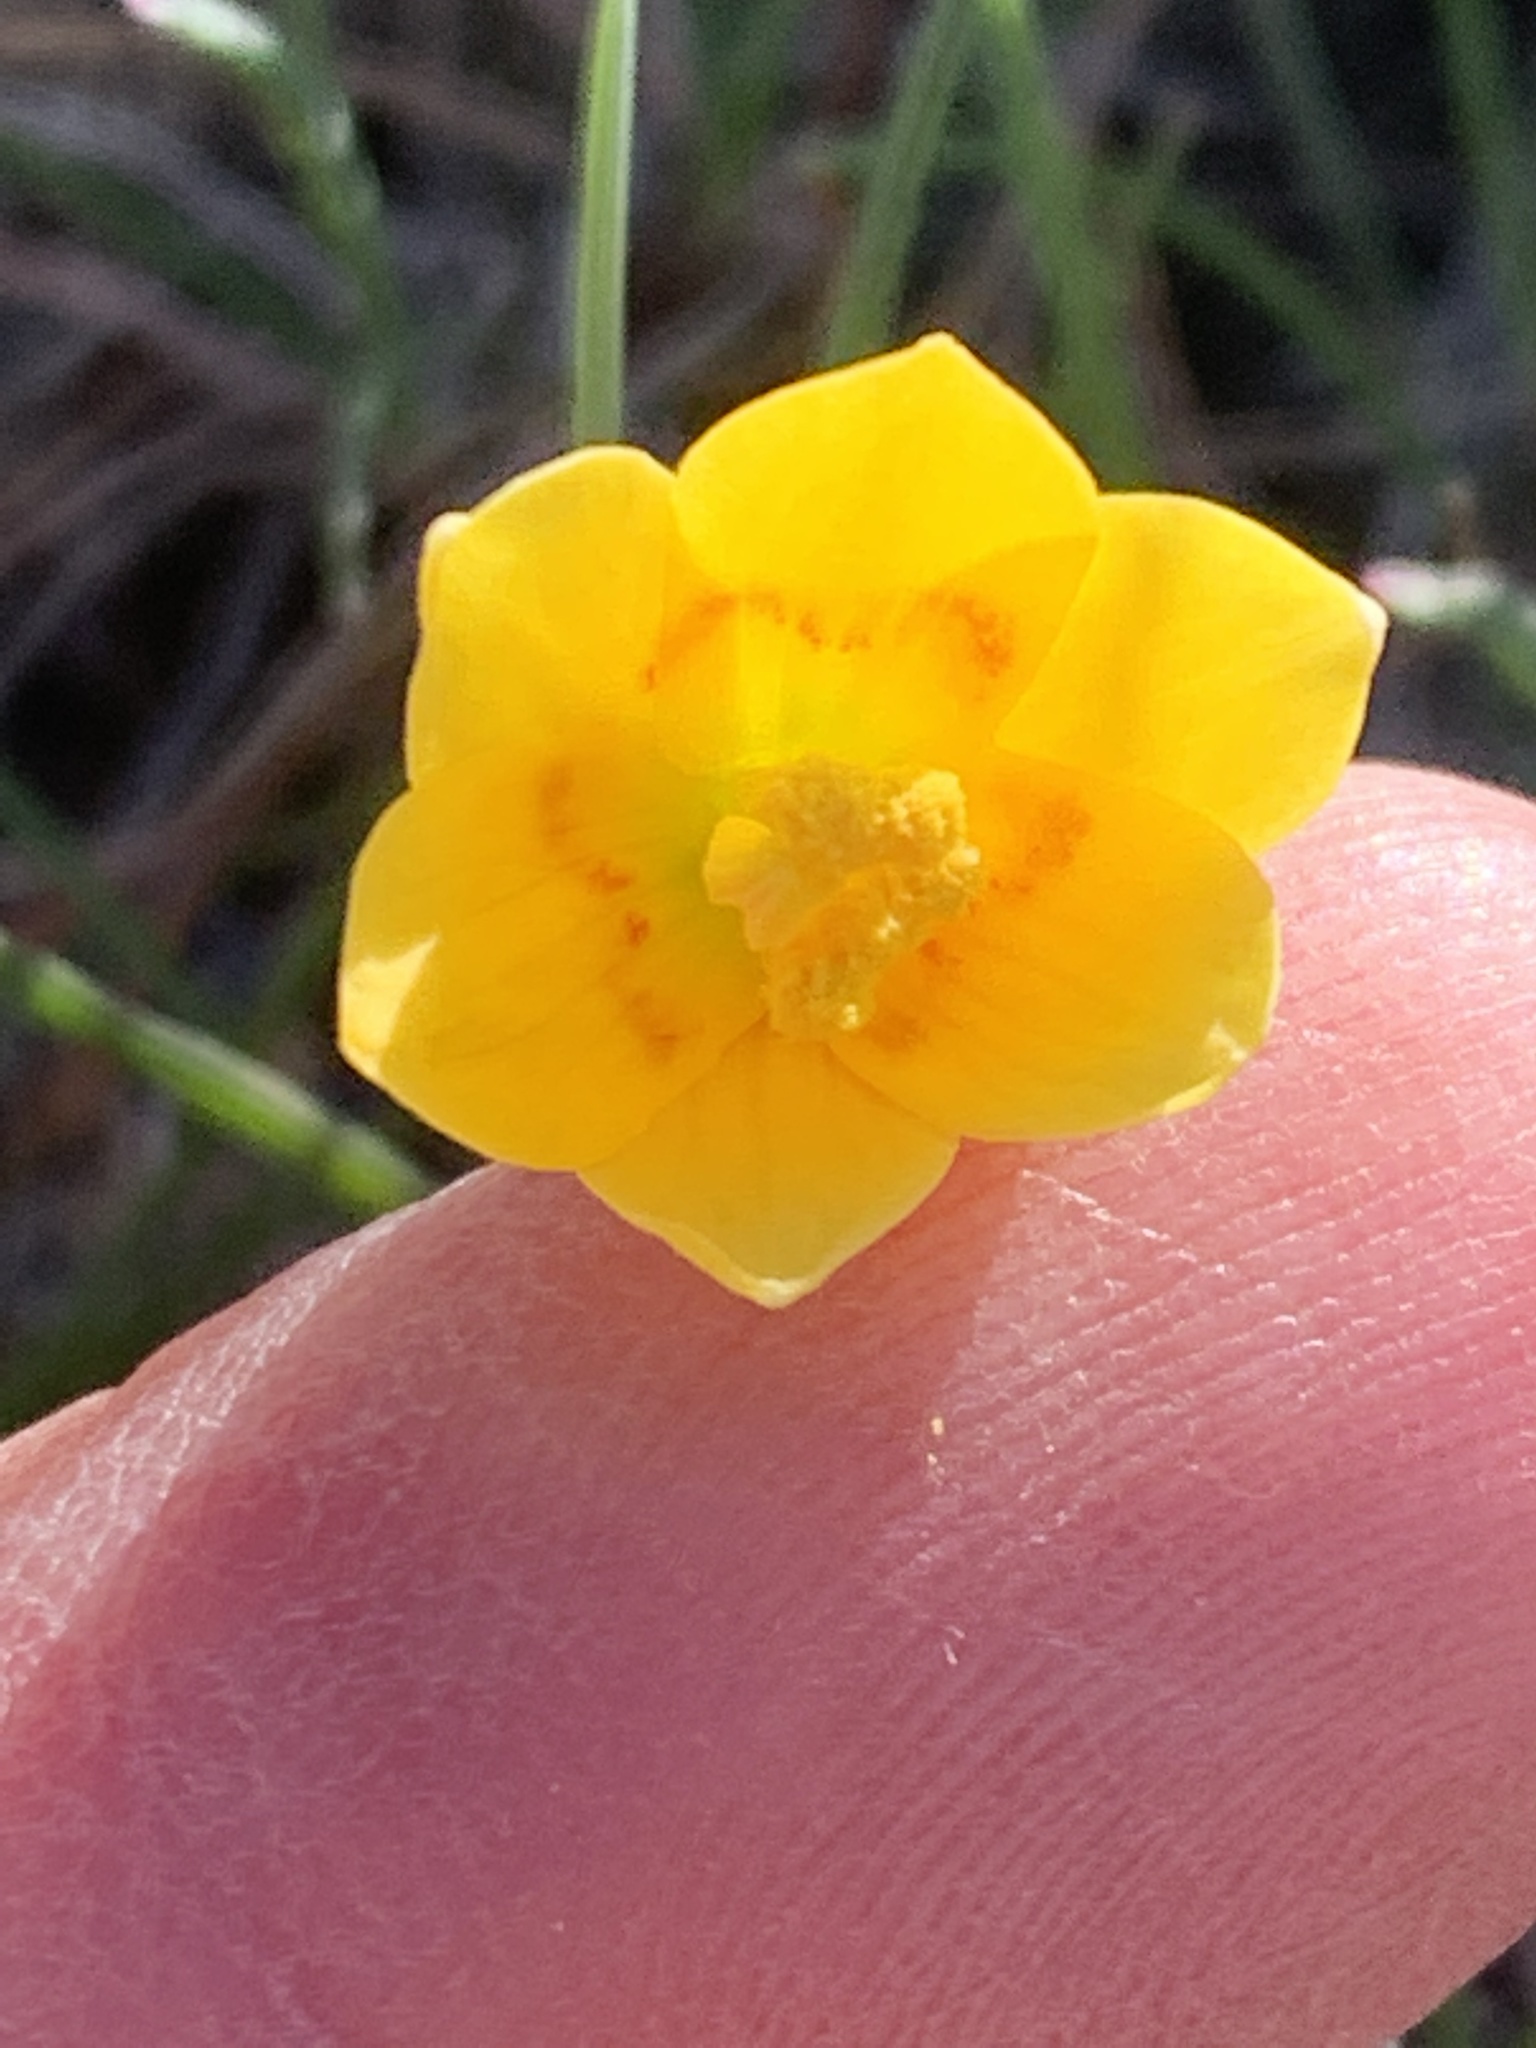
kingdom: Plantae
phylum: Tracheophyta
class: Liliopsida
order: Liliales
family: Liliaceae
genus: Fritillaria
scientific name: Fritillaria pudica
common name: Yellow fritillary
